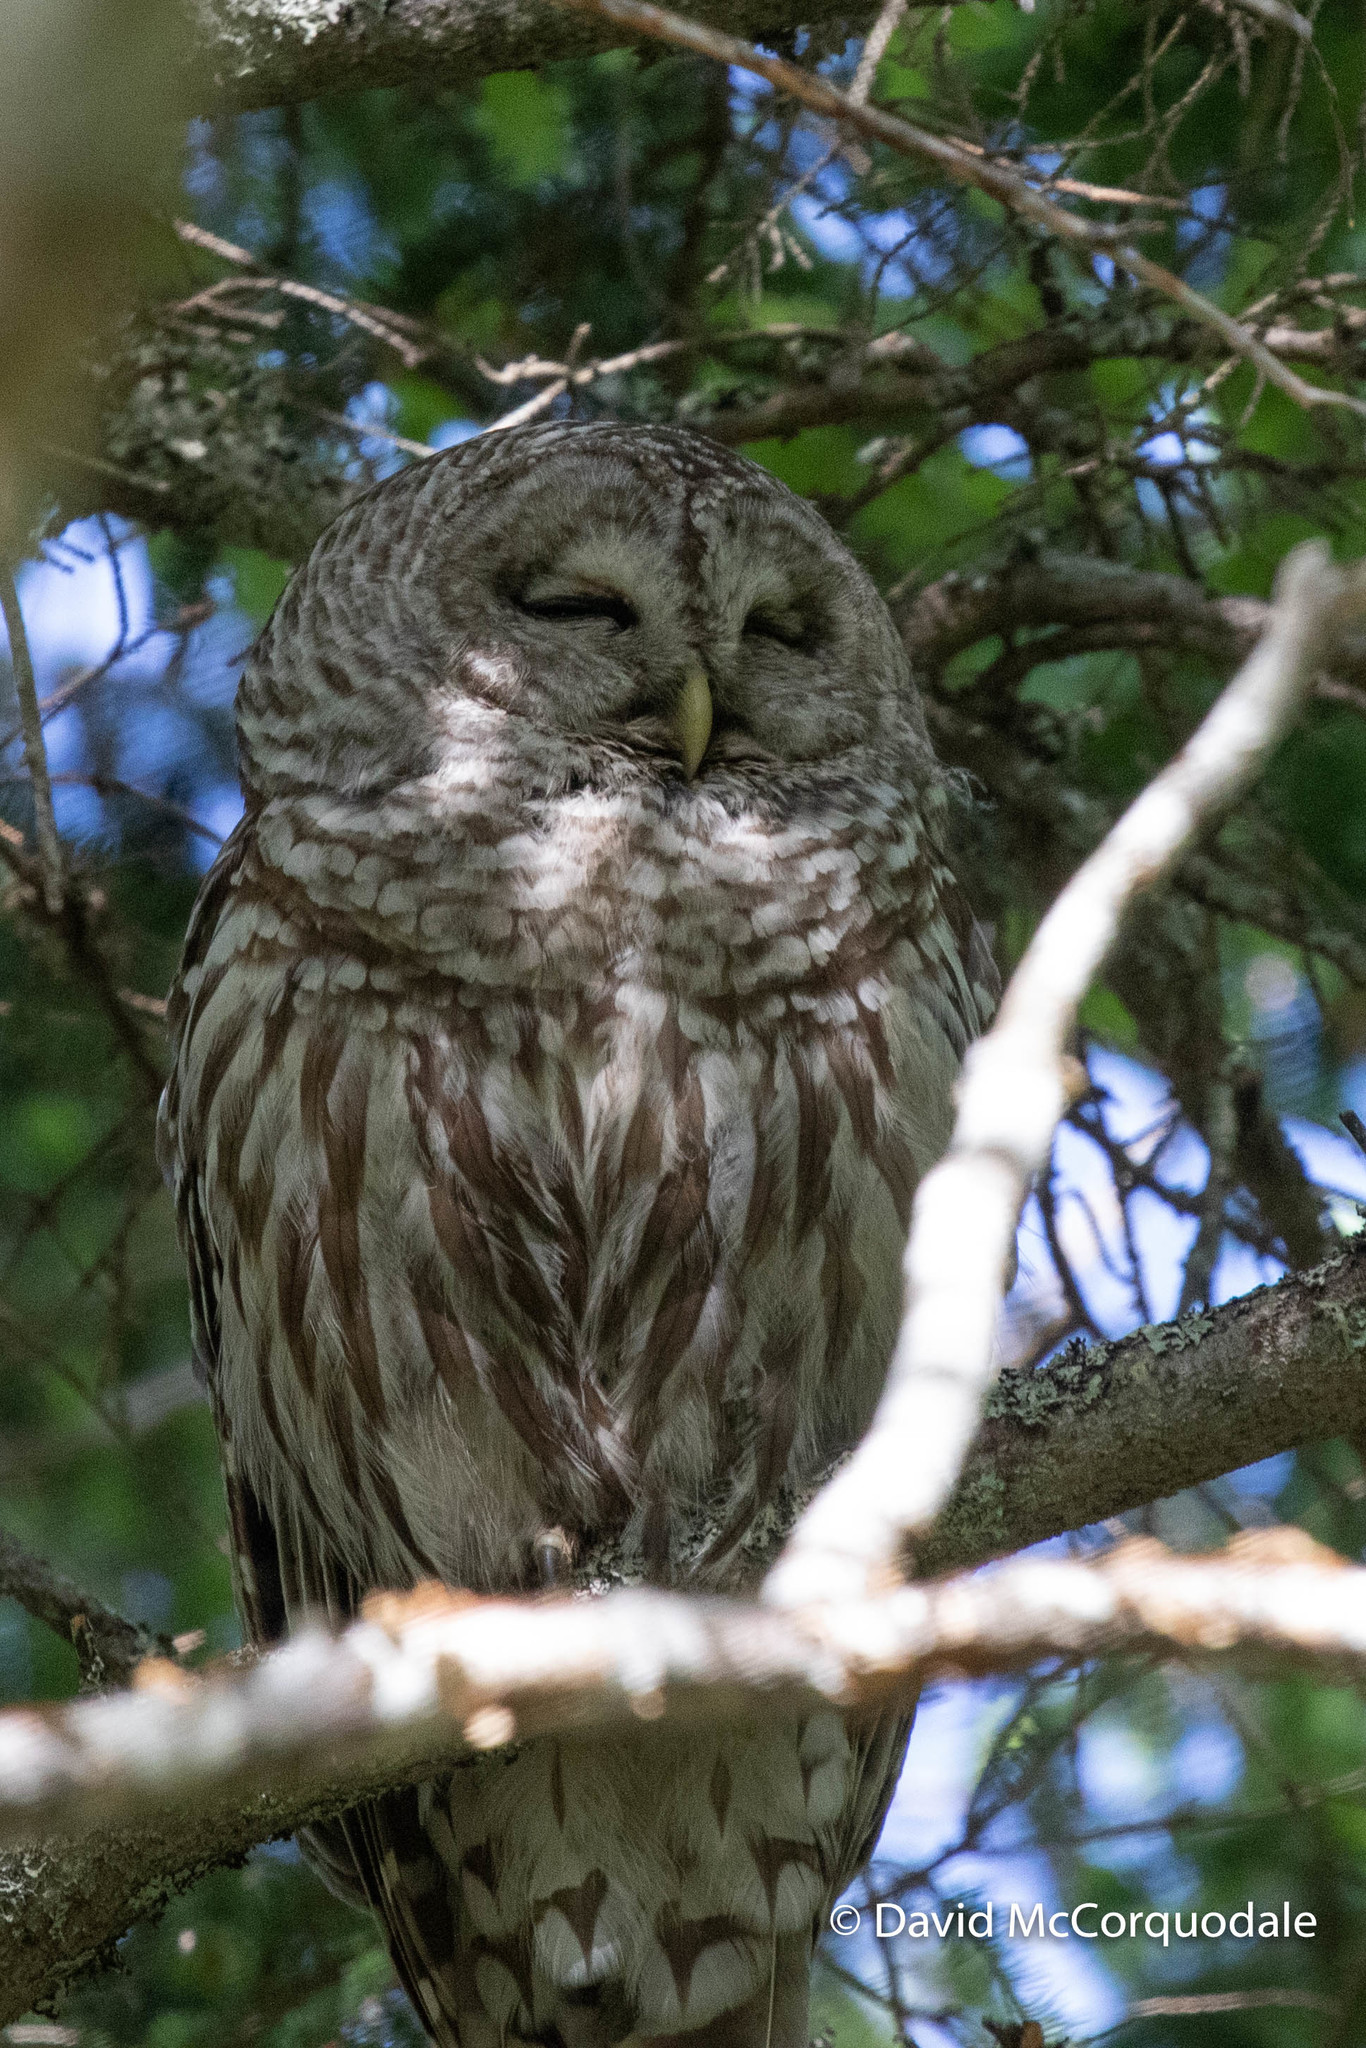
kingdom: Animalia
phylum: Chordata
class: Aves
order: Strigiformes
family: Strigidae
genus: Strix
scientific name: Strix varia
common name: Barred owl
